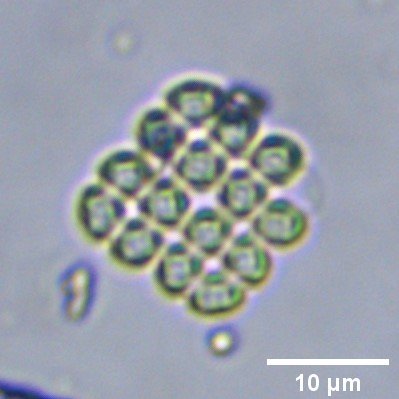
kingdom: Plantae
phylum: Chlorophyta
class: Trebouxiophyceae
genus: Crucigenia
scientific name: Crucigenia lauterbornii
